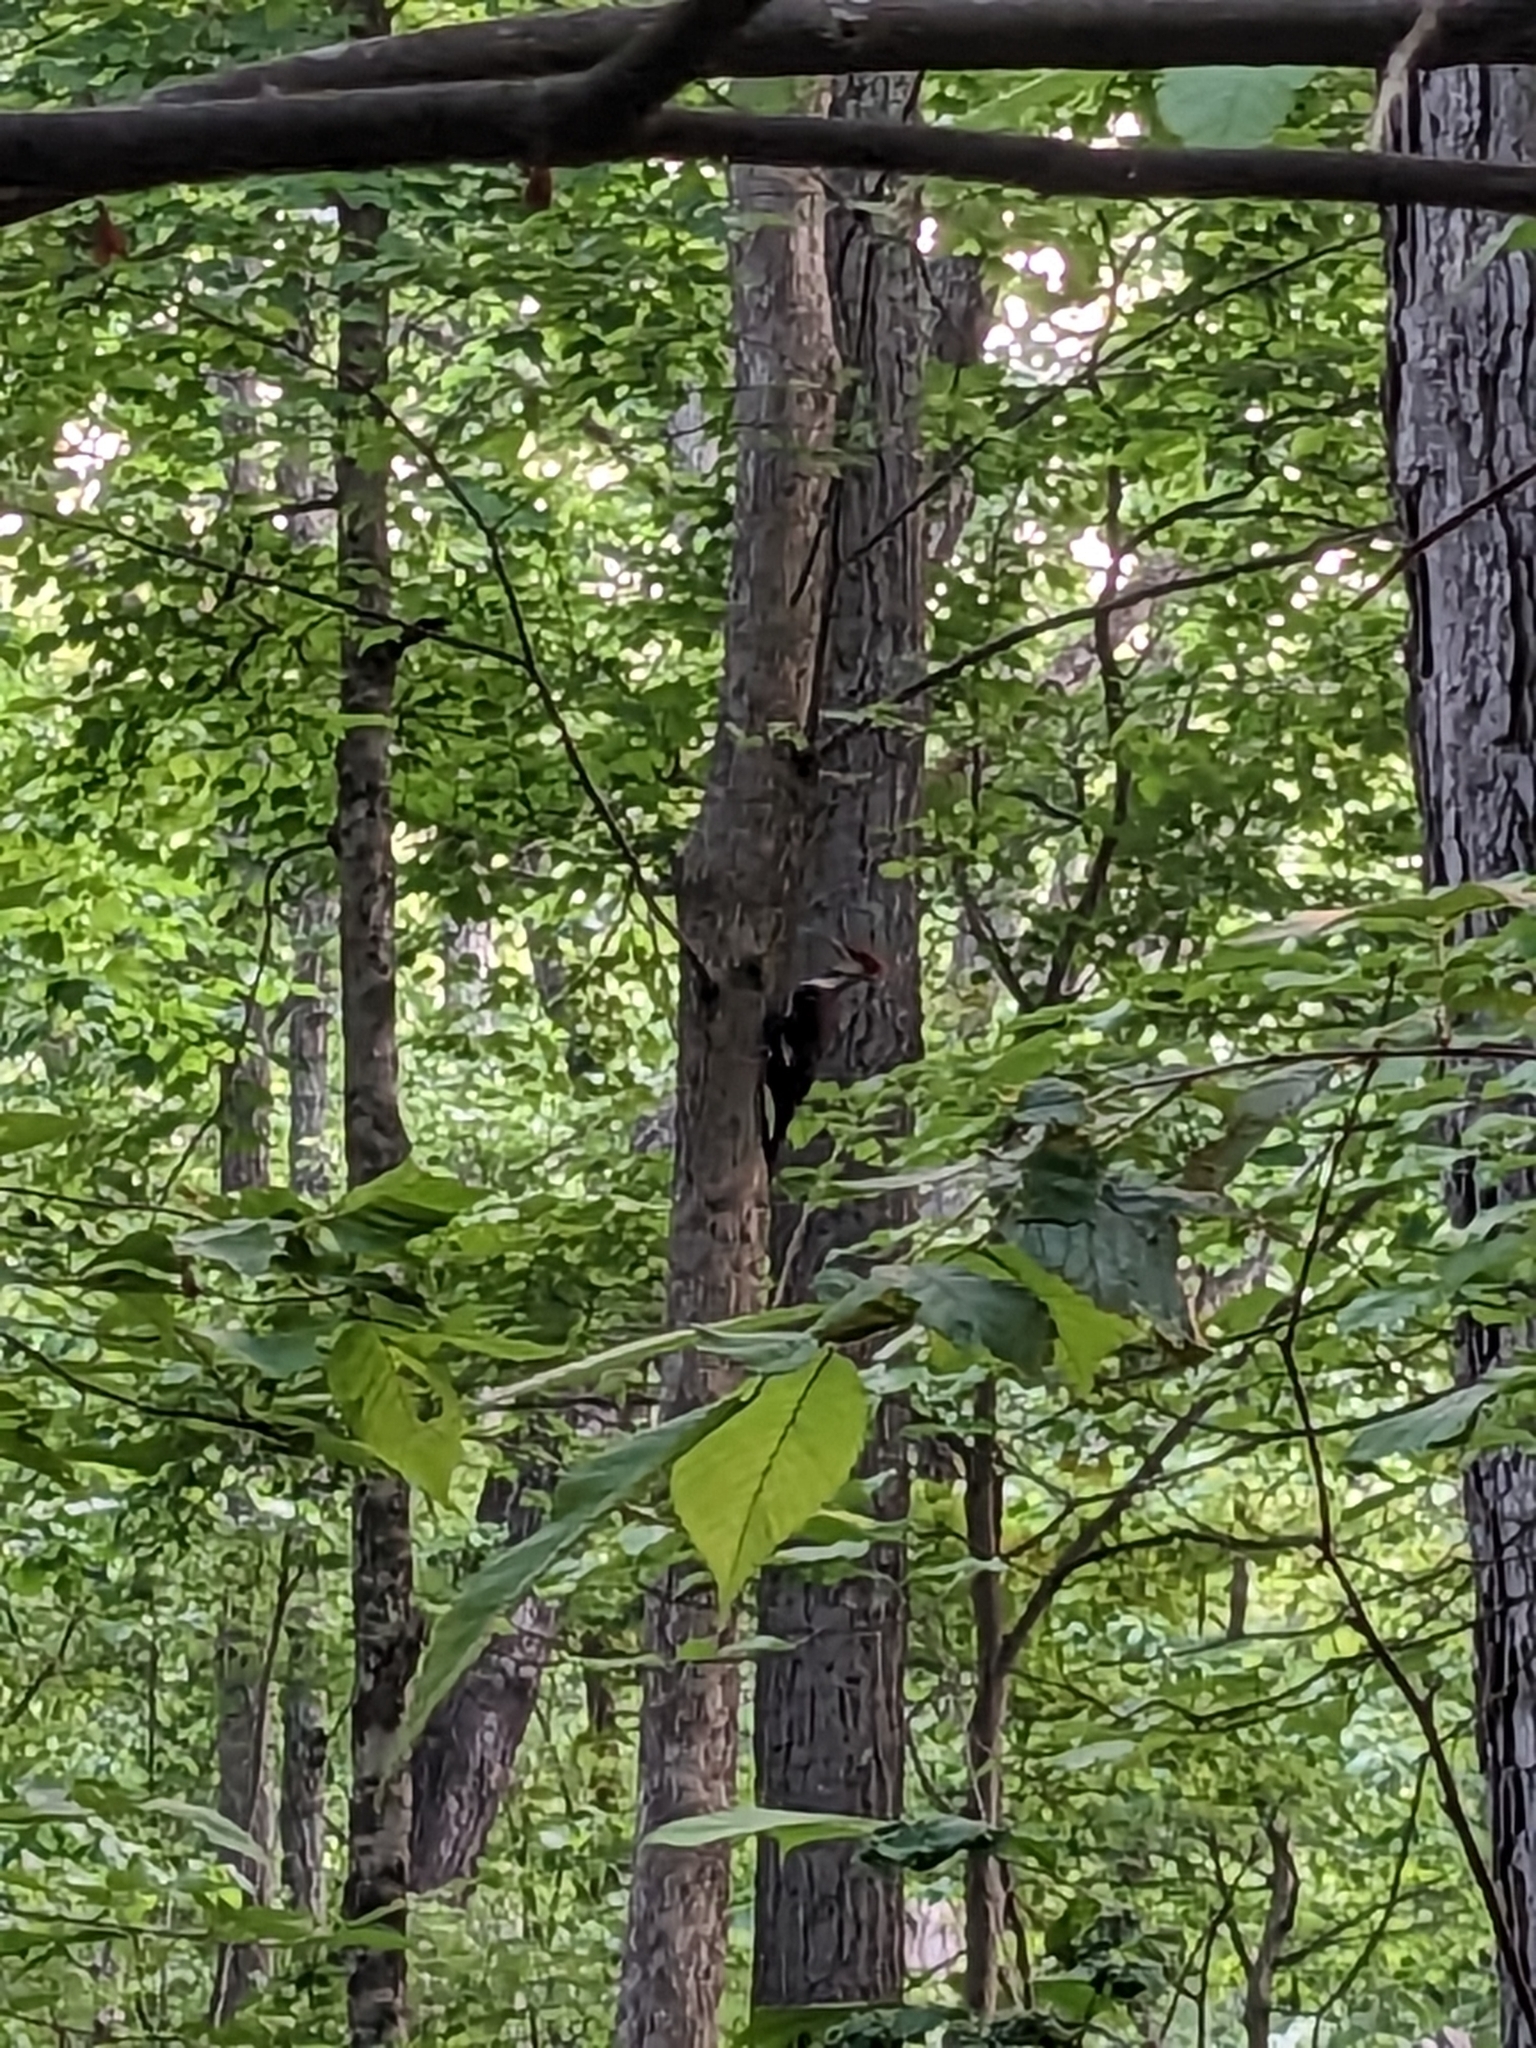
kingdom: Animalia
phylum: Chordata
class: Aves
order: Piciformes
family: Picidae
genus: Dryocopus
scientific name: Dryocopus pileatus
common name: Pileated woodpecker
